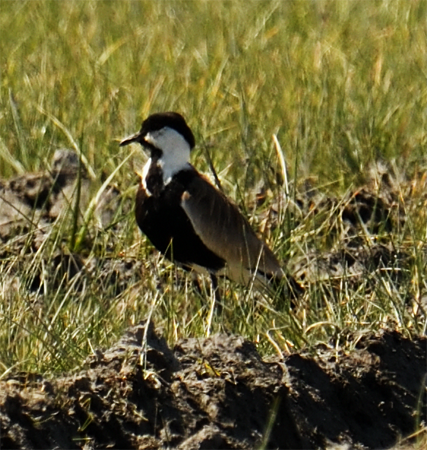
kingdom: Animalia
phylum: Chordata
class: Aves
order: Charadriiformes
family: Charadriidae
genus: Vanellus
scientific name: Vanellus spinosus
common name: Spur-winged lapwing
